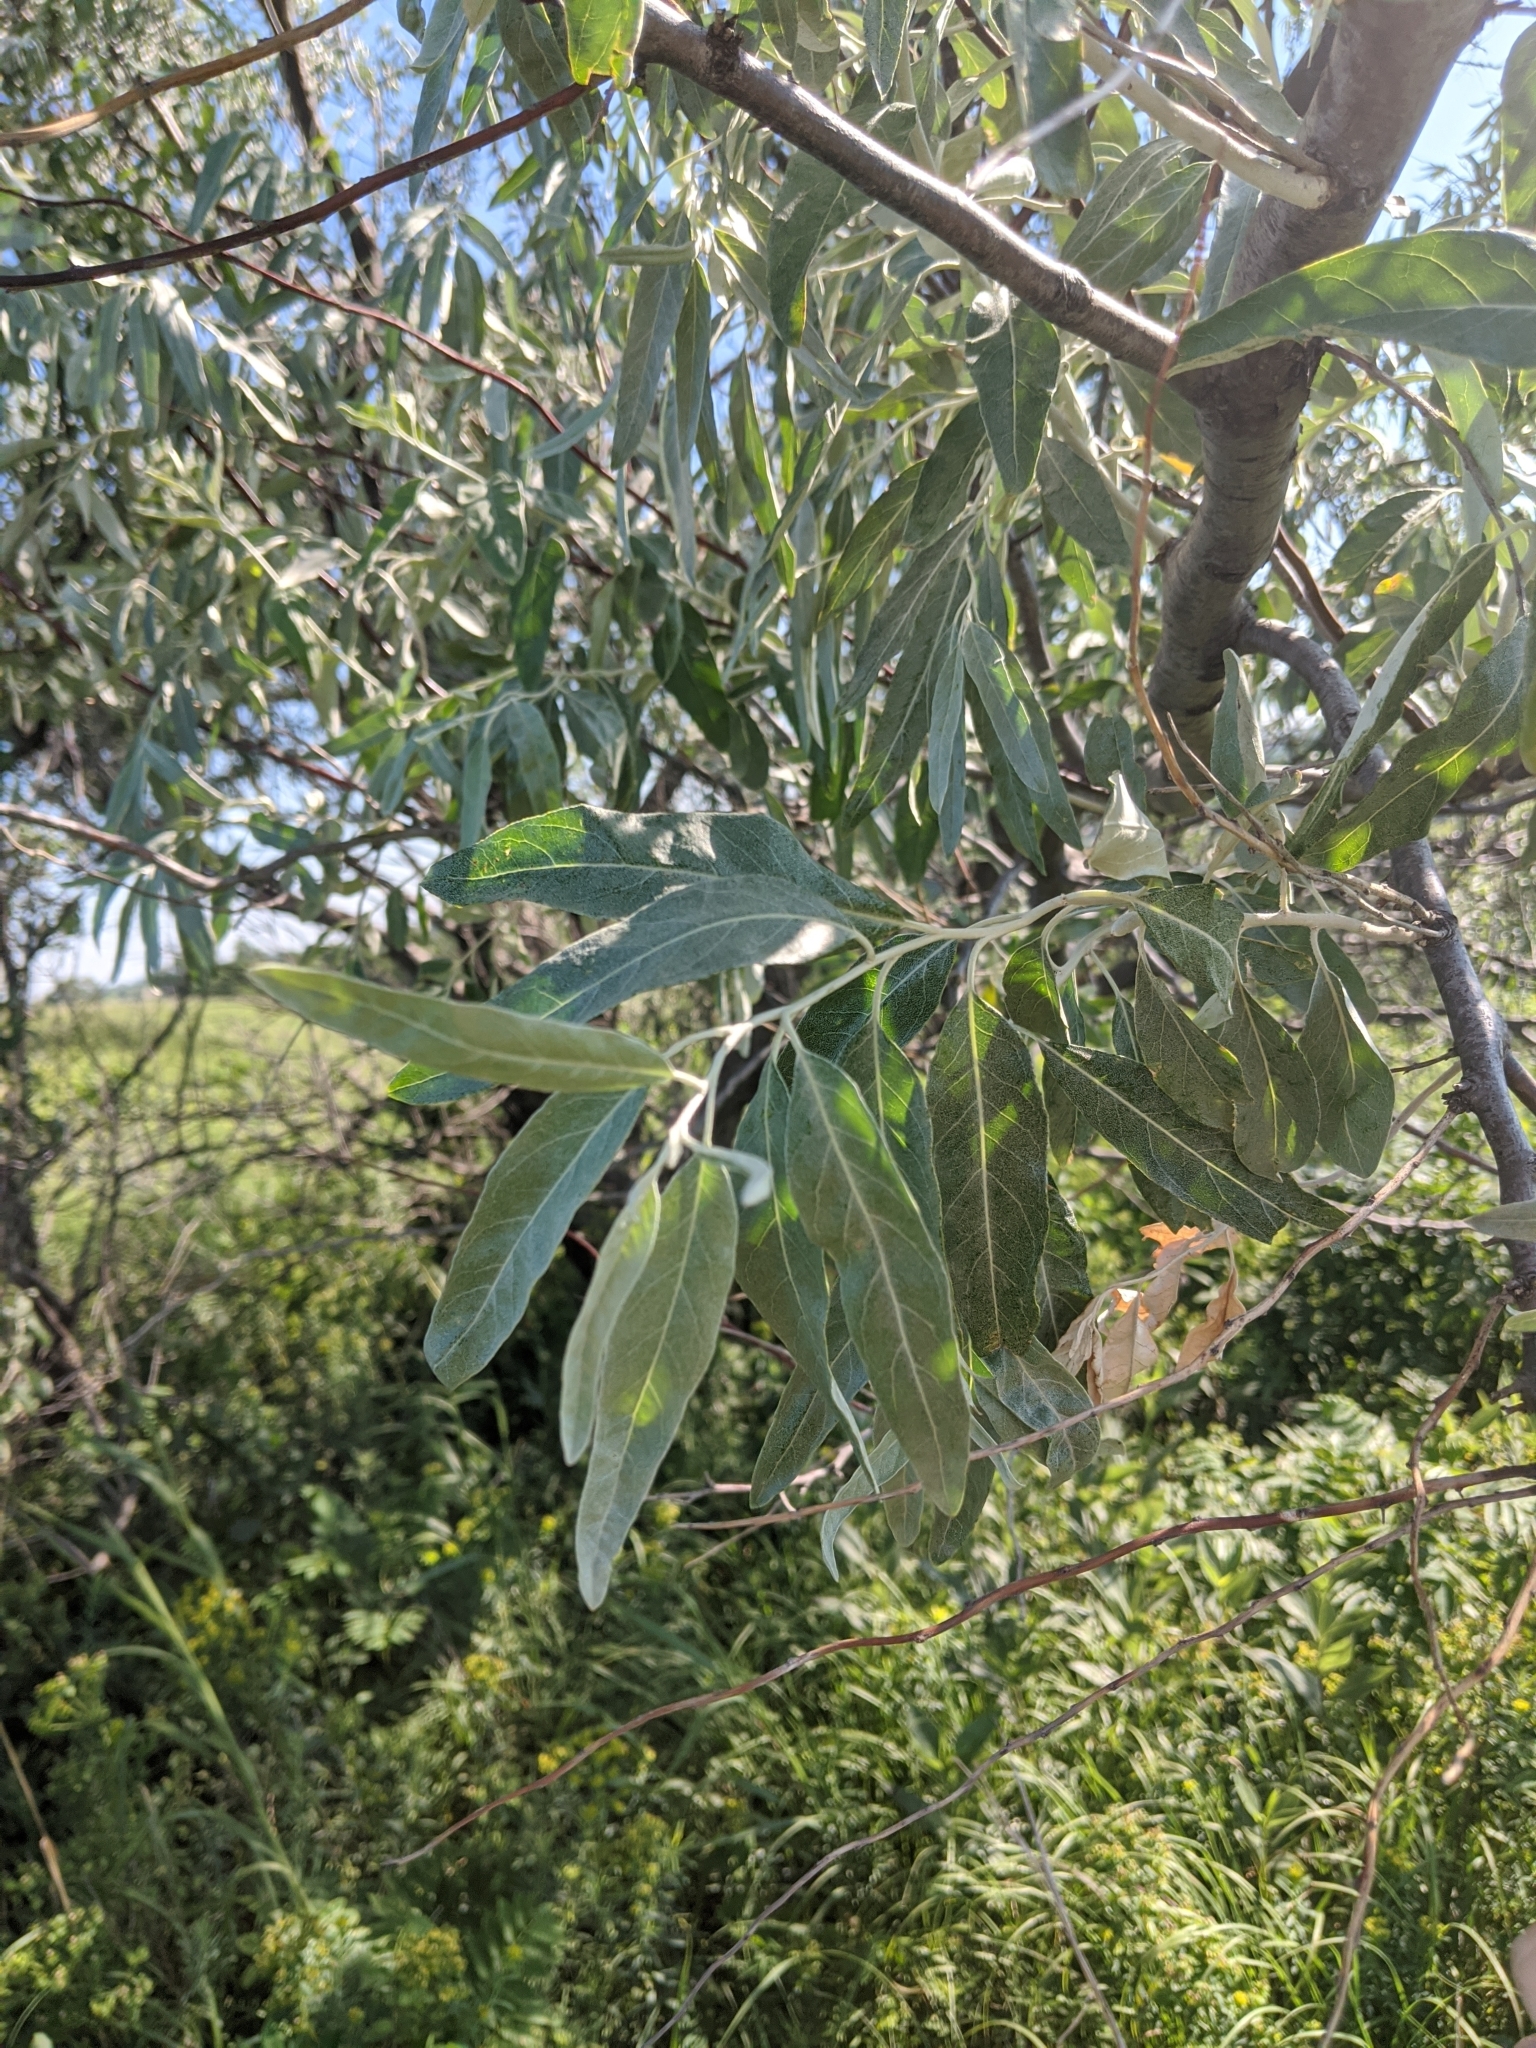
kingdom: Plantae
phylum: Tracheophyta
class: Magnoliopsida
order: Rosales
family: Elaeagnaceae
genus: Elaeagnus
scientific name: Elaeagnus angustifolia
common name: Russian olive
